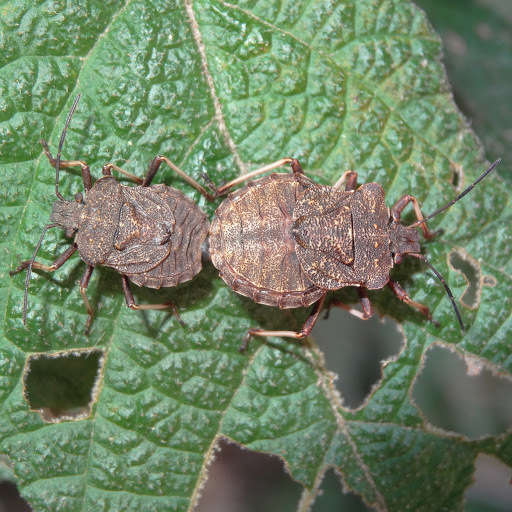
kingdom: Animalia
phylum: Arthropoda
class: Insecta
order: Hemiptera
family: Pentatomidae
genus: Tinganina
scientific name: Tinganina
